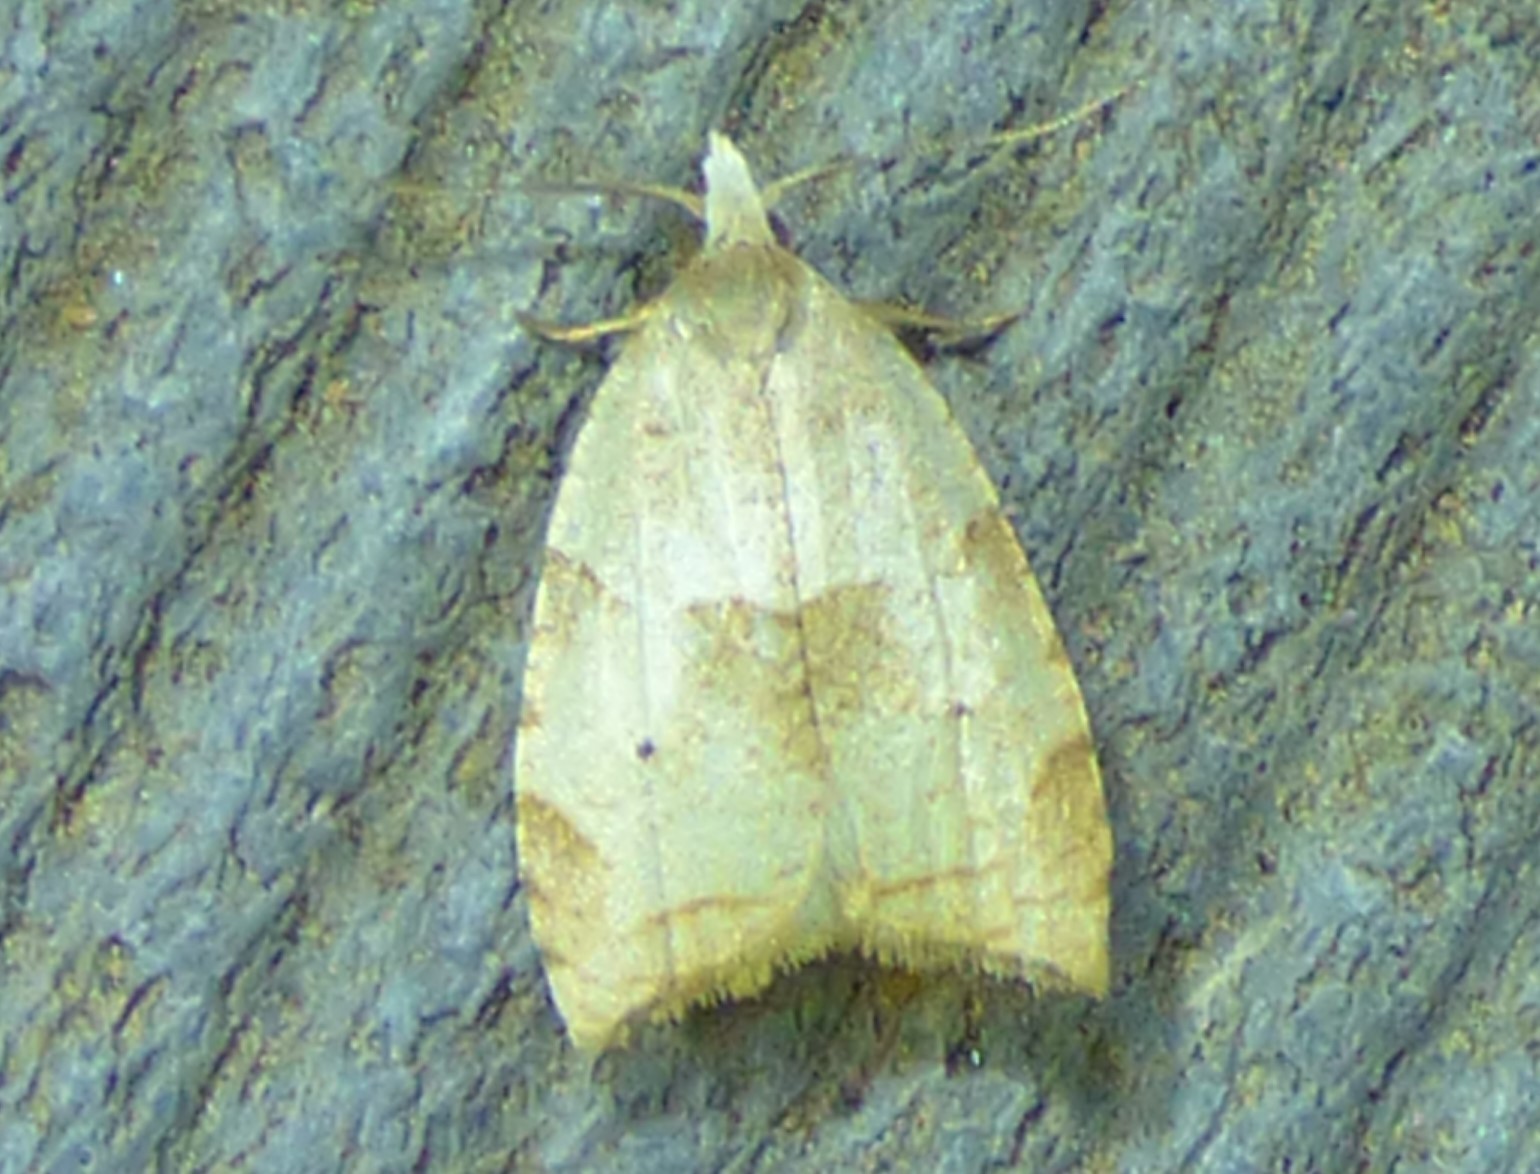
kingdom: Animalia
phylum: Arthropoda
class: Insecta
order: Lepidoptera
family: Tortricidae
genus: Coelostathma
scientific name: Coelostathma discopunctana
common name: Batman moth
